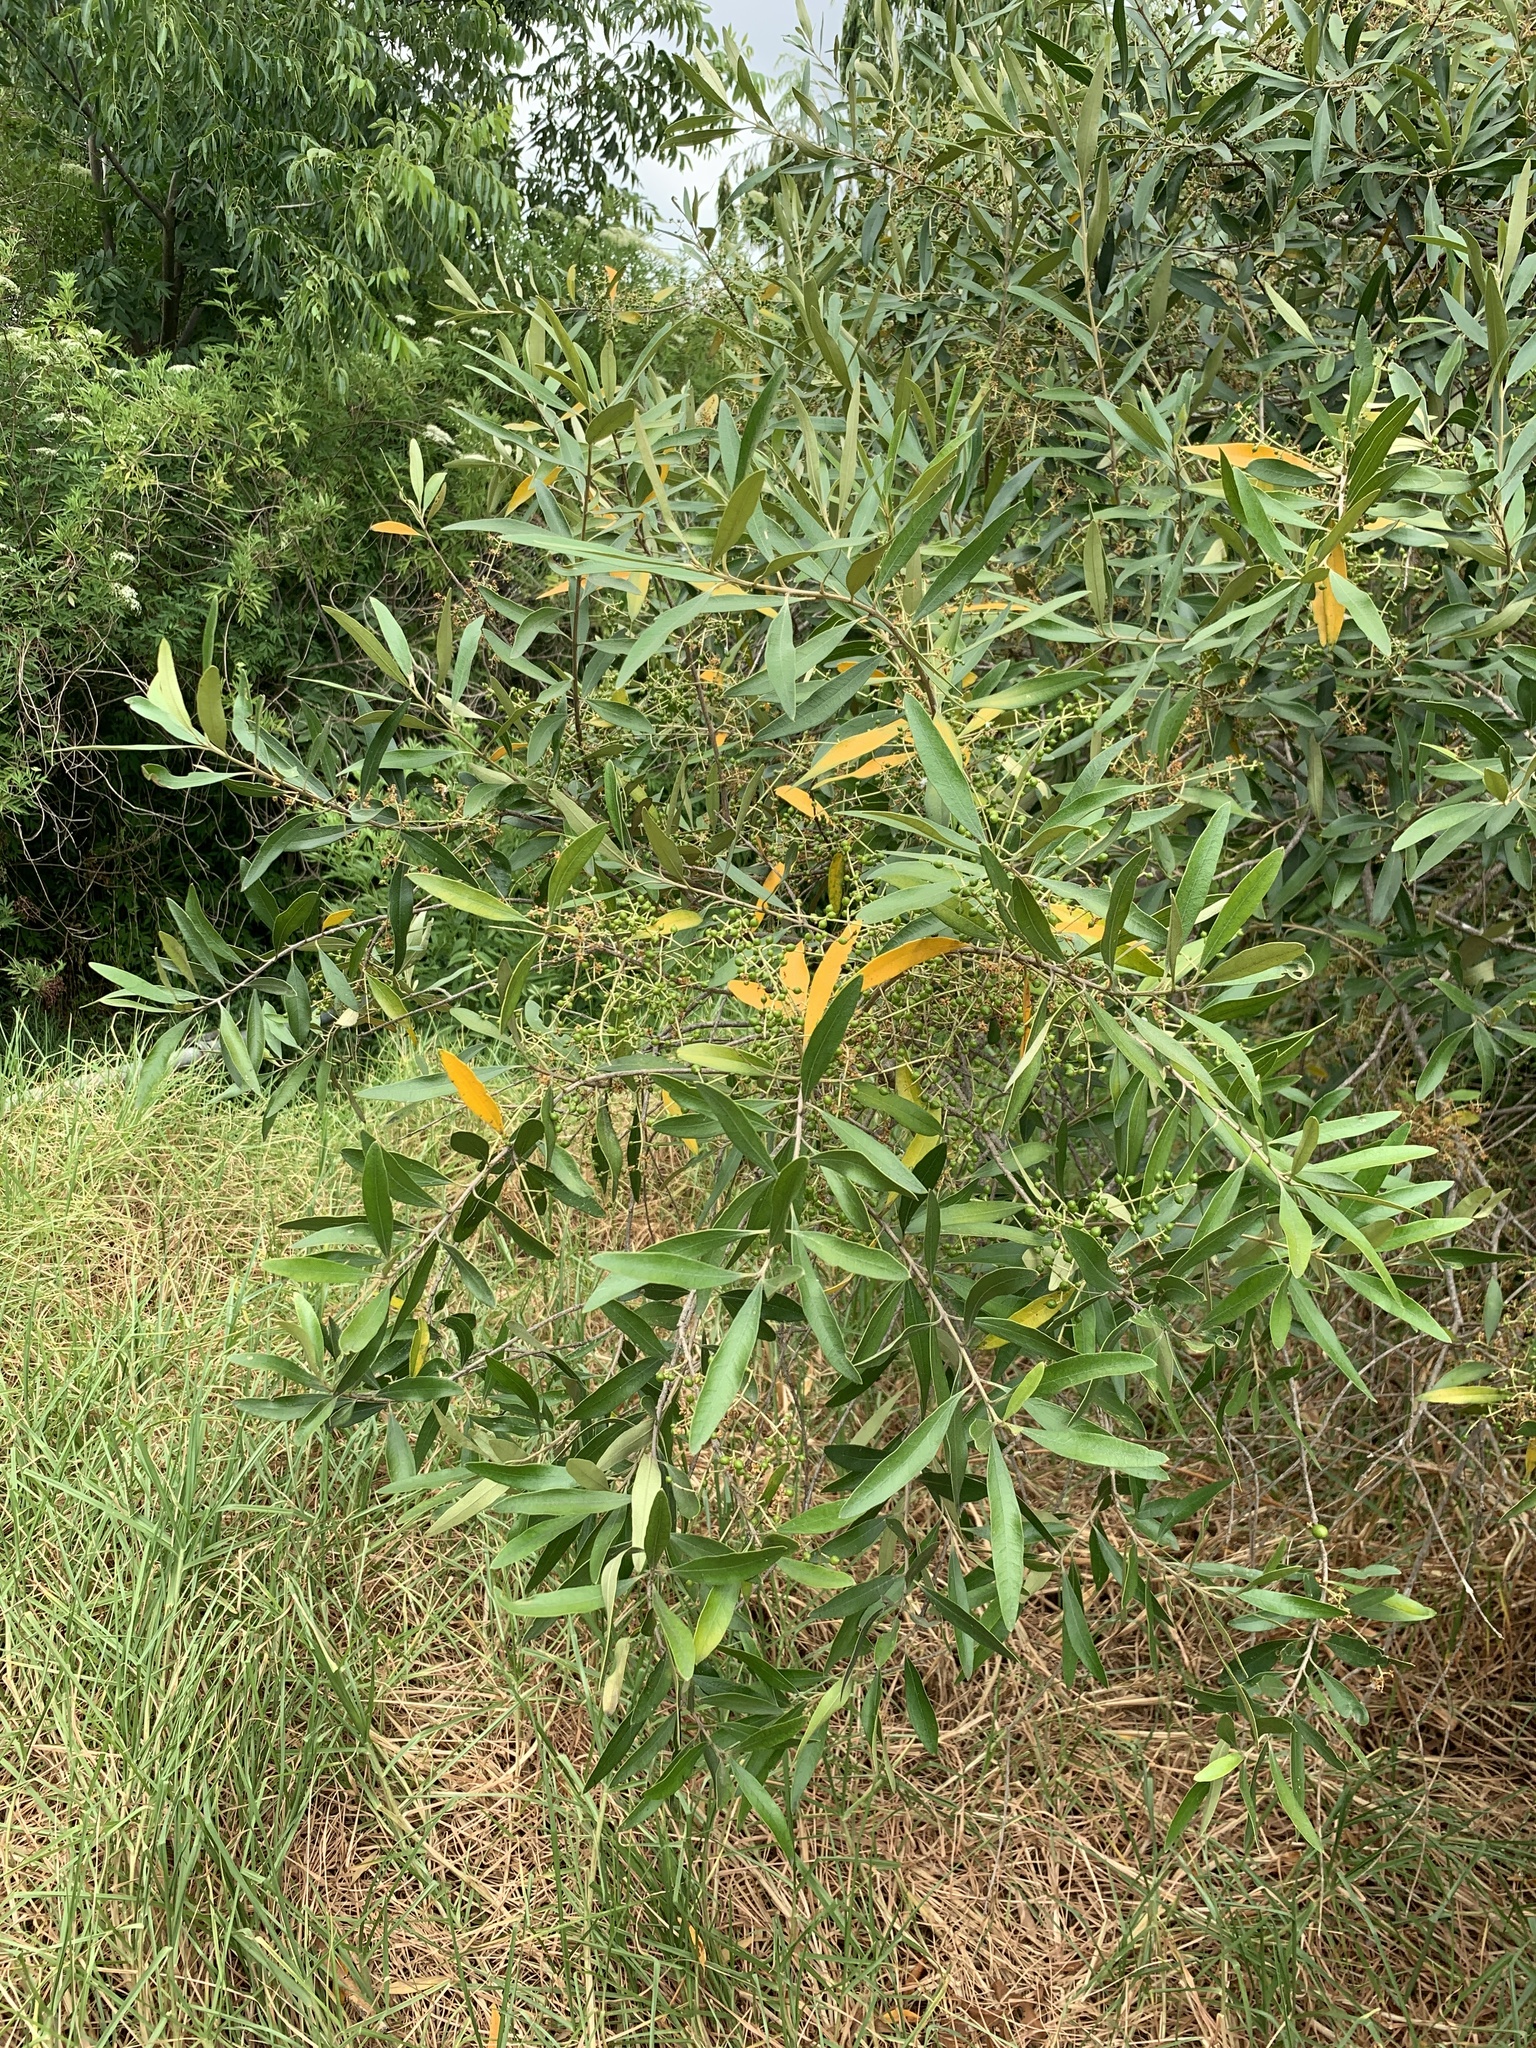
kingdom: Plantae
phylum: Tracheophyta
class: Magnoliopsida
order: Lamiales
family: Oleaceae
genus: Olea
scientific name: Olea europaea
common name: Olive
